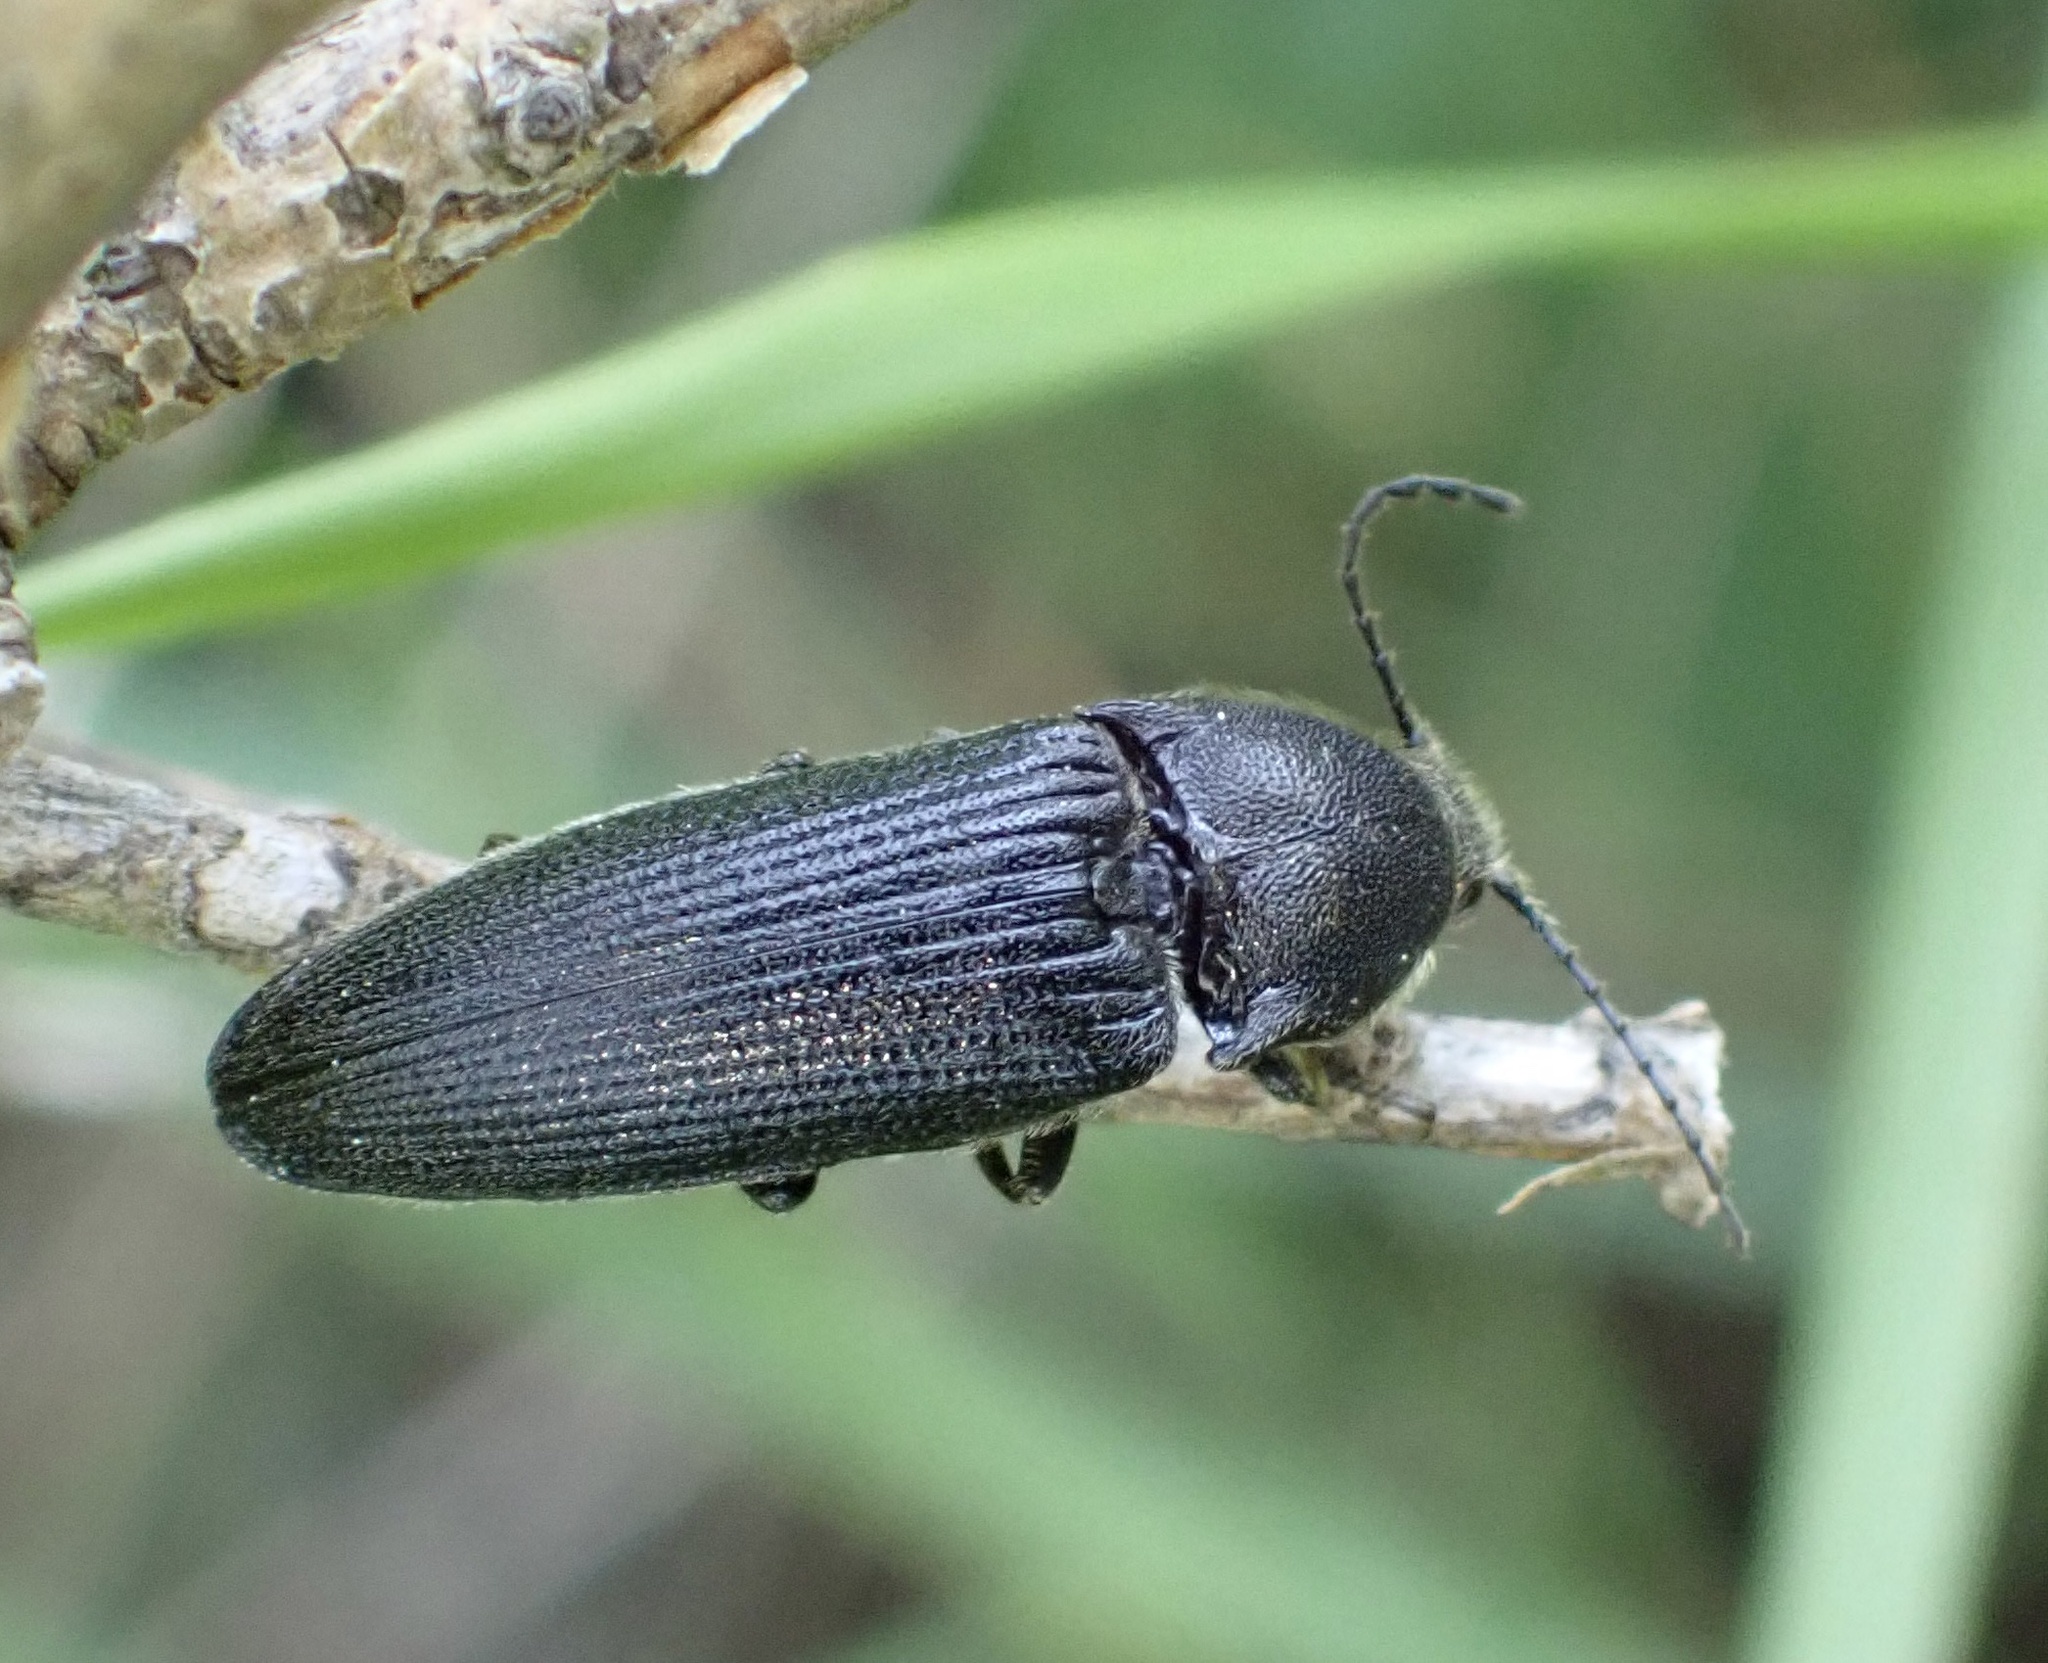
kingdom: Animalia
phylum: Arthropoda
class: Insecta
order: Coleoptera
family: Elateridae
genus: Melanotus
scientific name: Melanotus punctolineatus
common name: Sandwich click beetle
